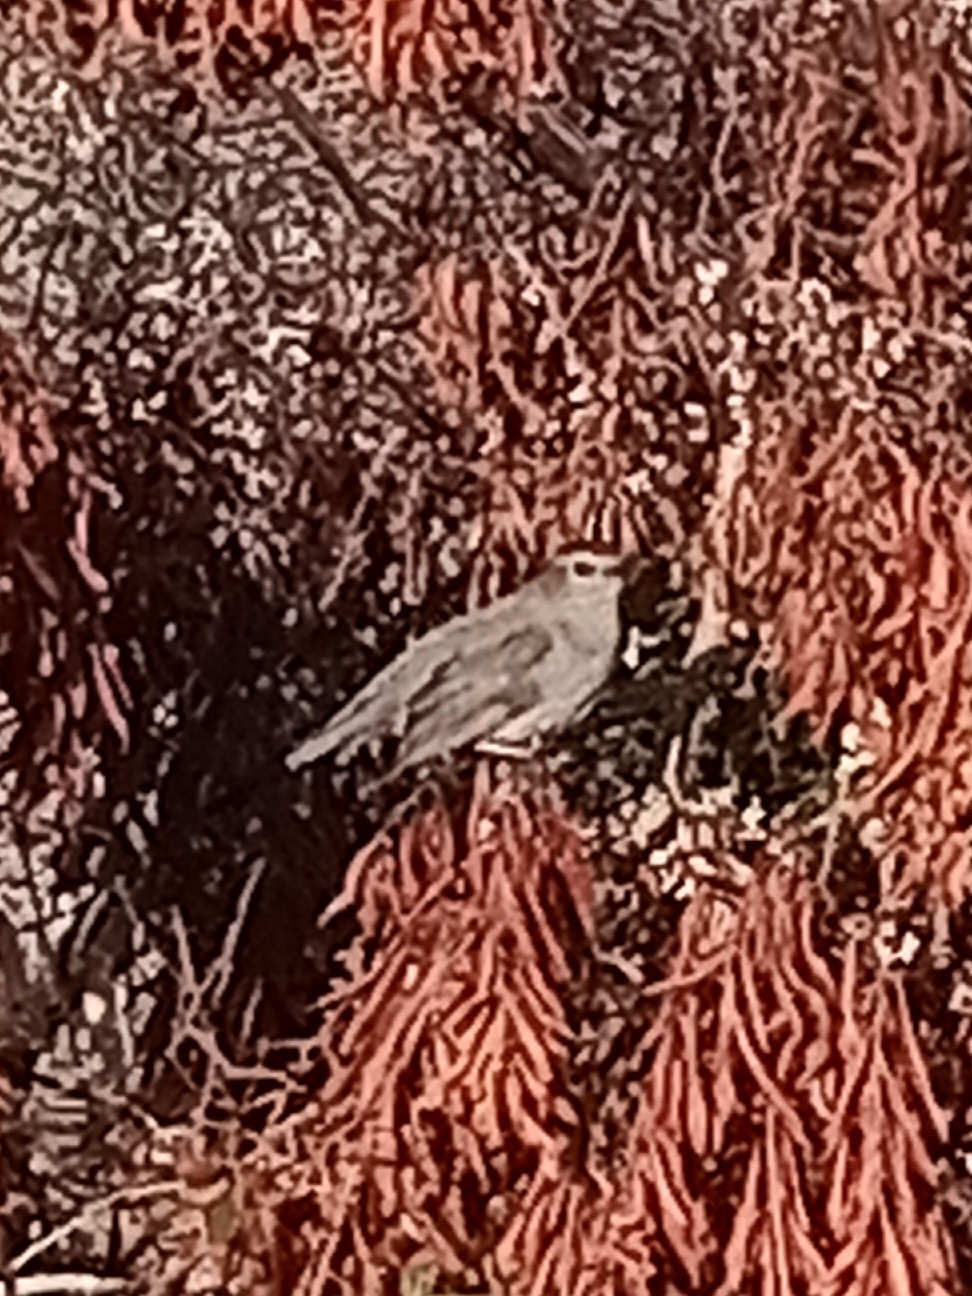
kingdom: Animalia
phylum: Chordata
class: Aves
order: Passeriformes
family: Mimidae
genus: Dumetella
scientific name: Dumetella carolinensis
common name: Gray catbird
